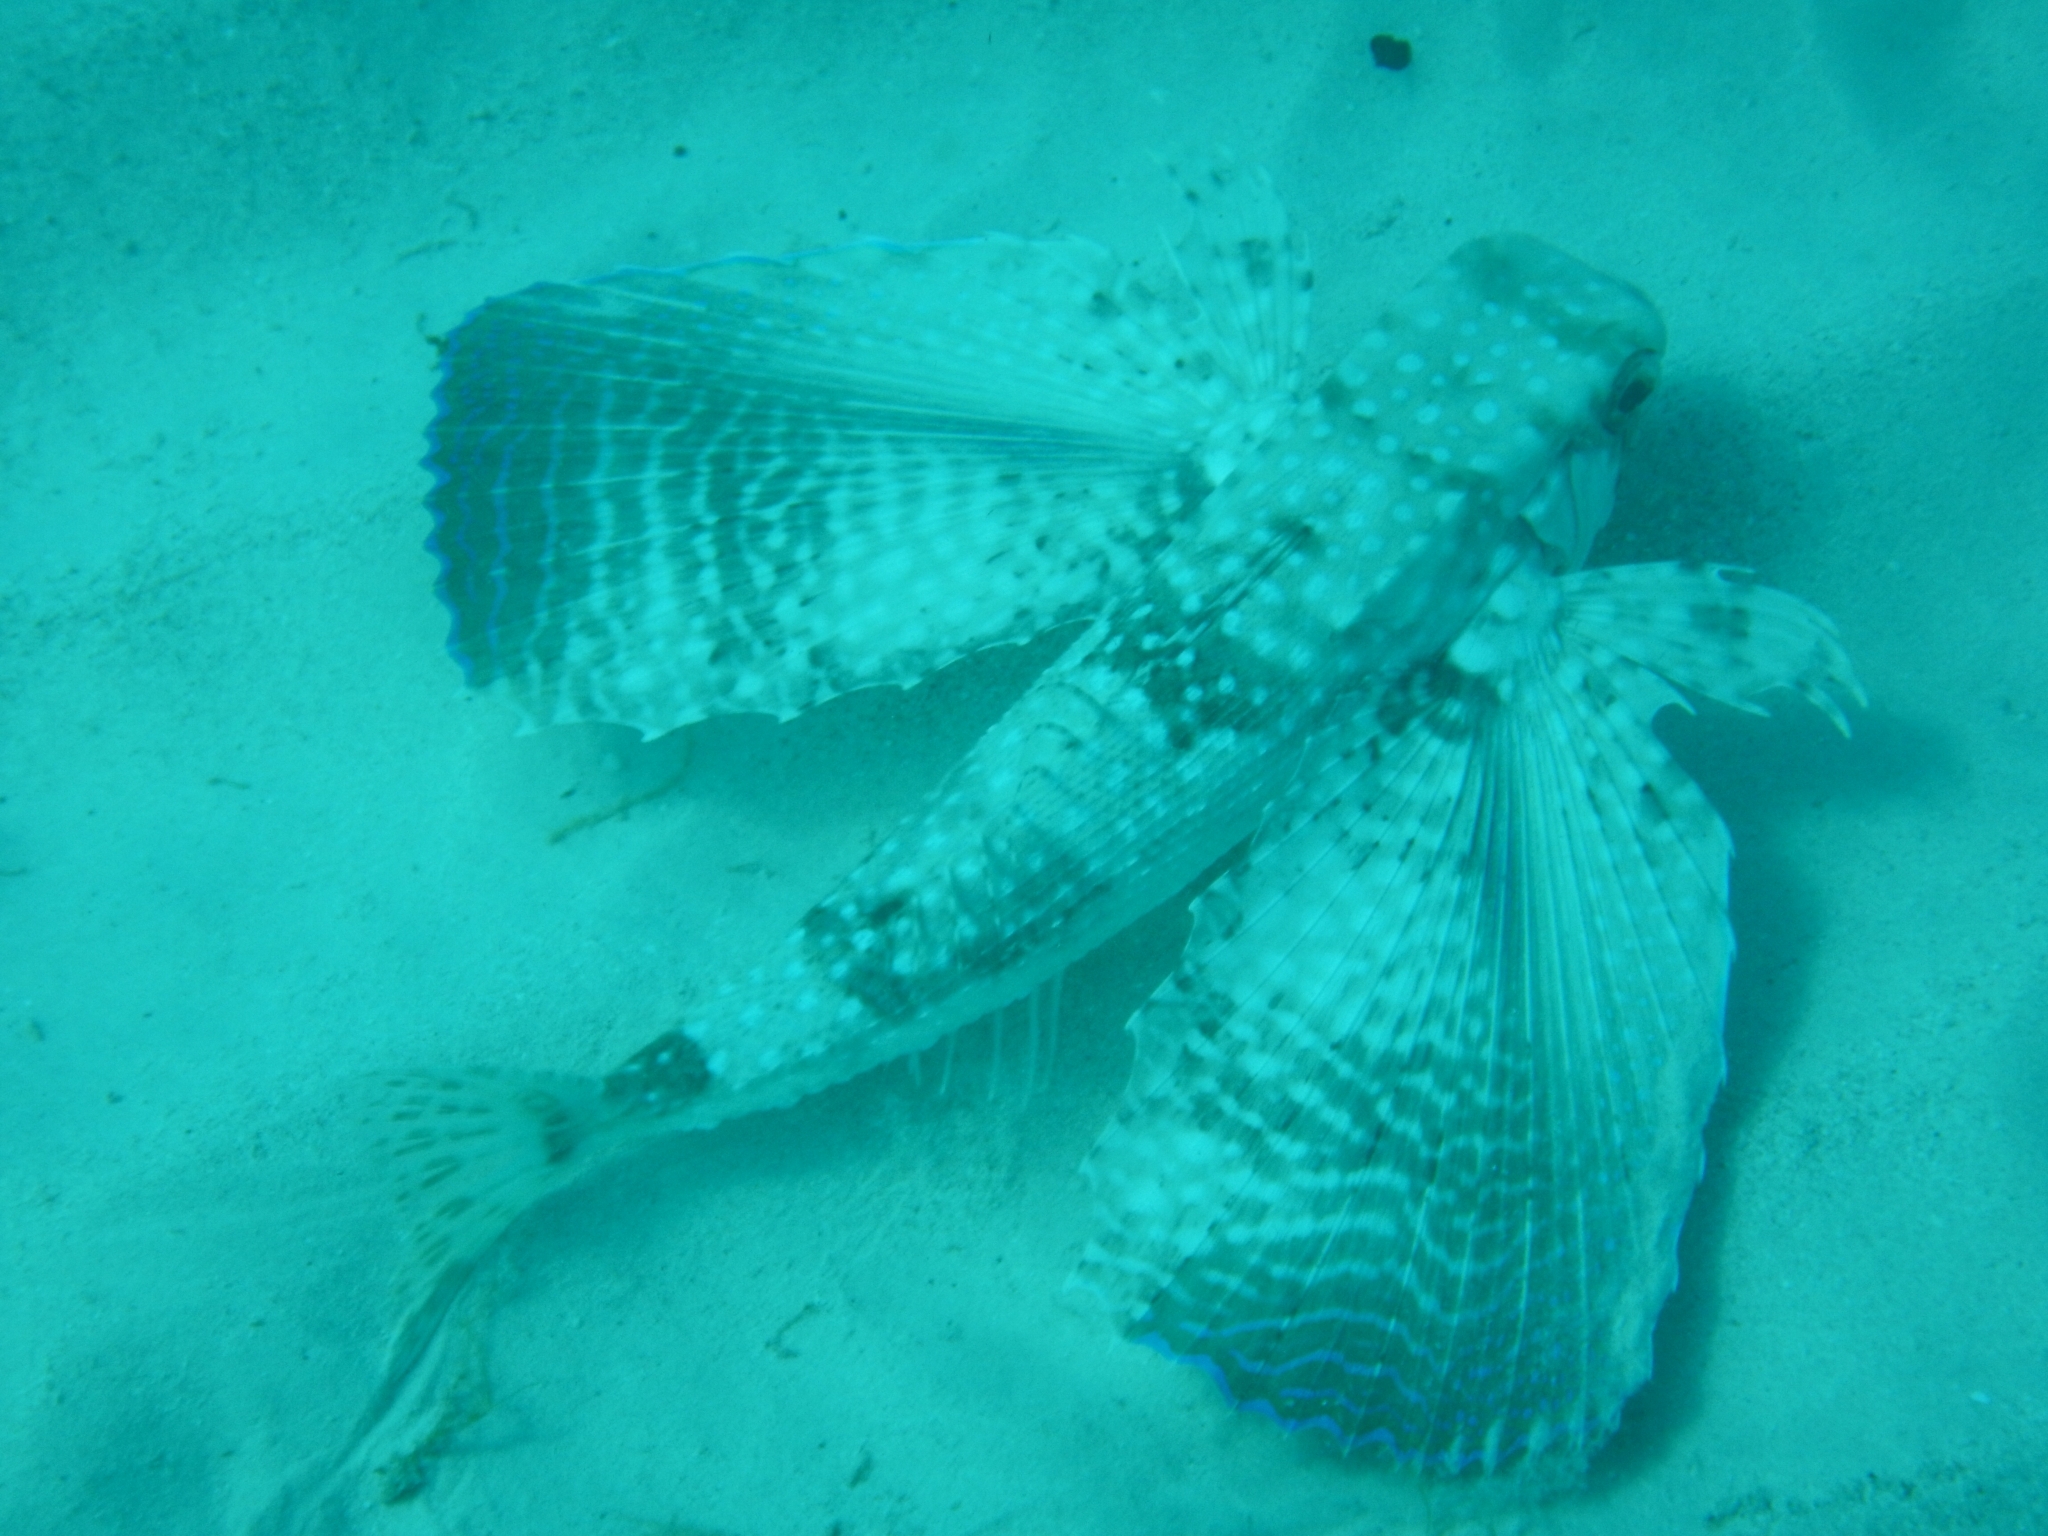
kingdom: Animalia
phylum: Chordata
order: Scorpaeniformes
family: Dactylopteridae
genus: Dactylopterus
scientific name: Dactylopterus volitans
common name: Flying gurnard
